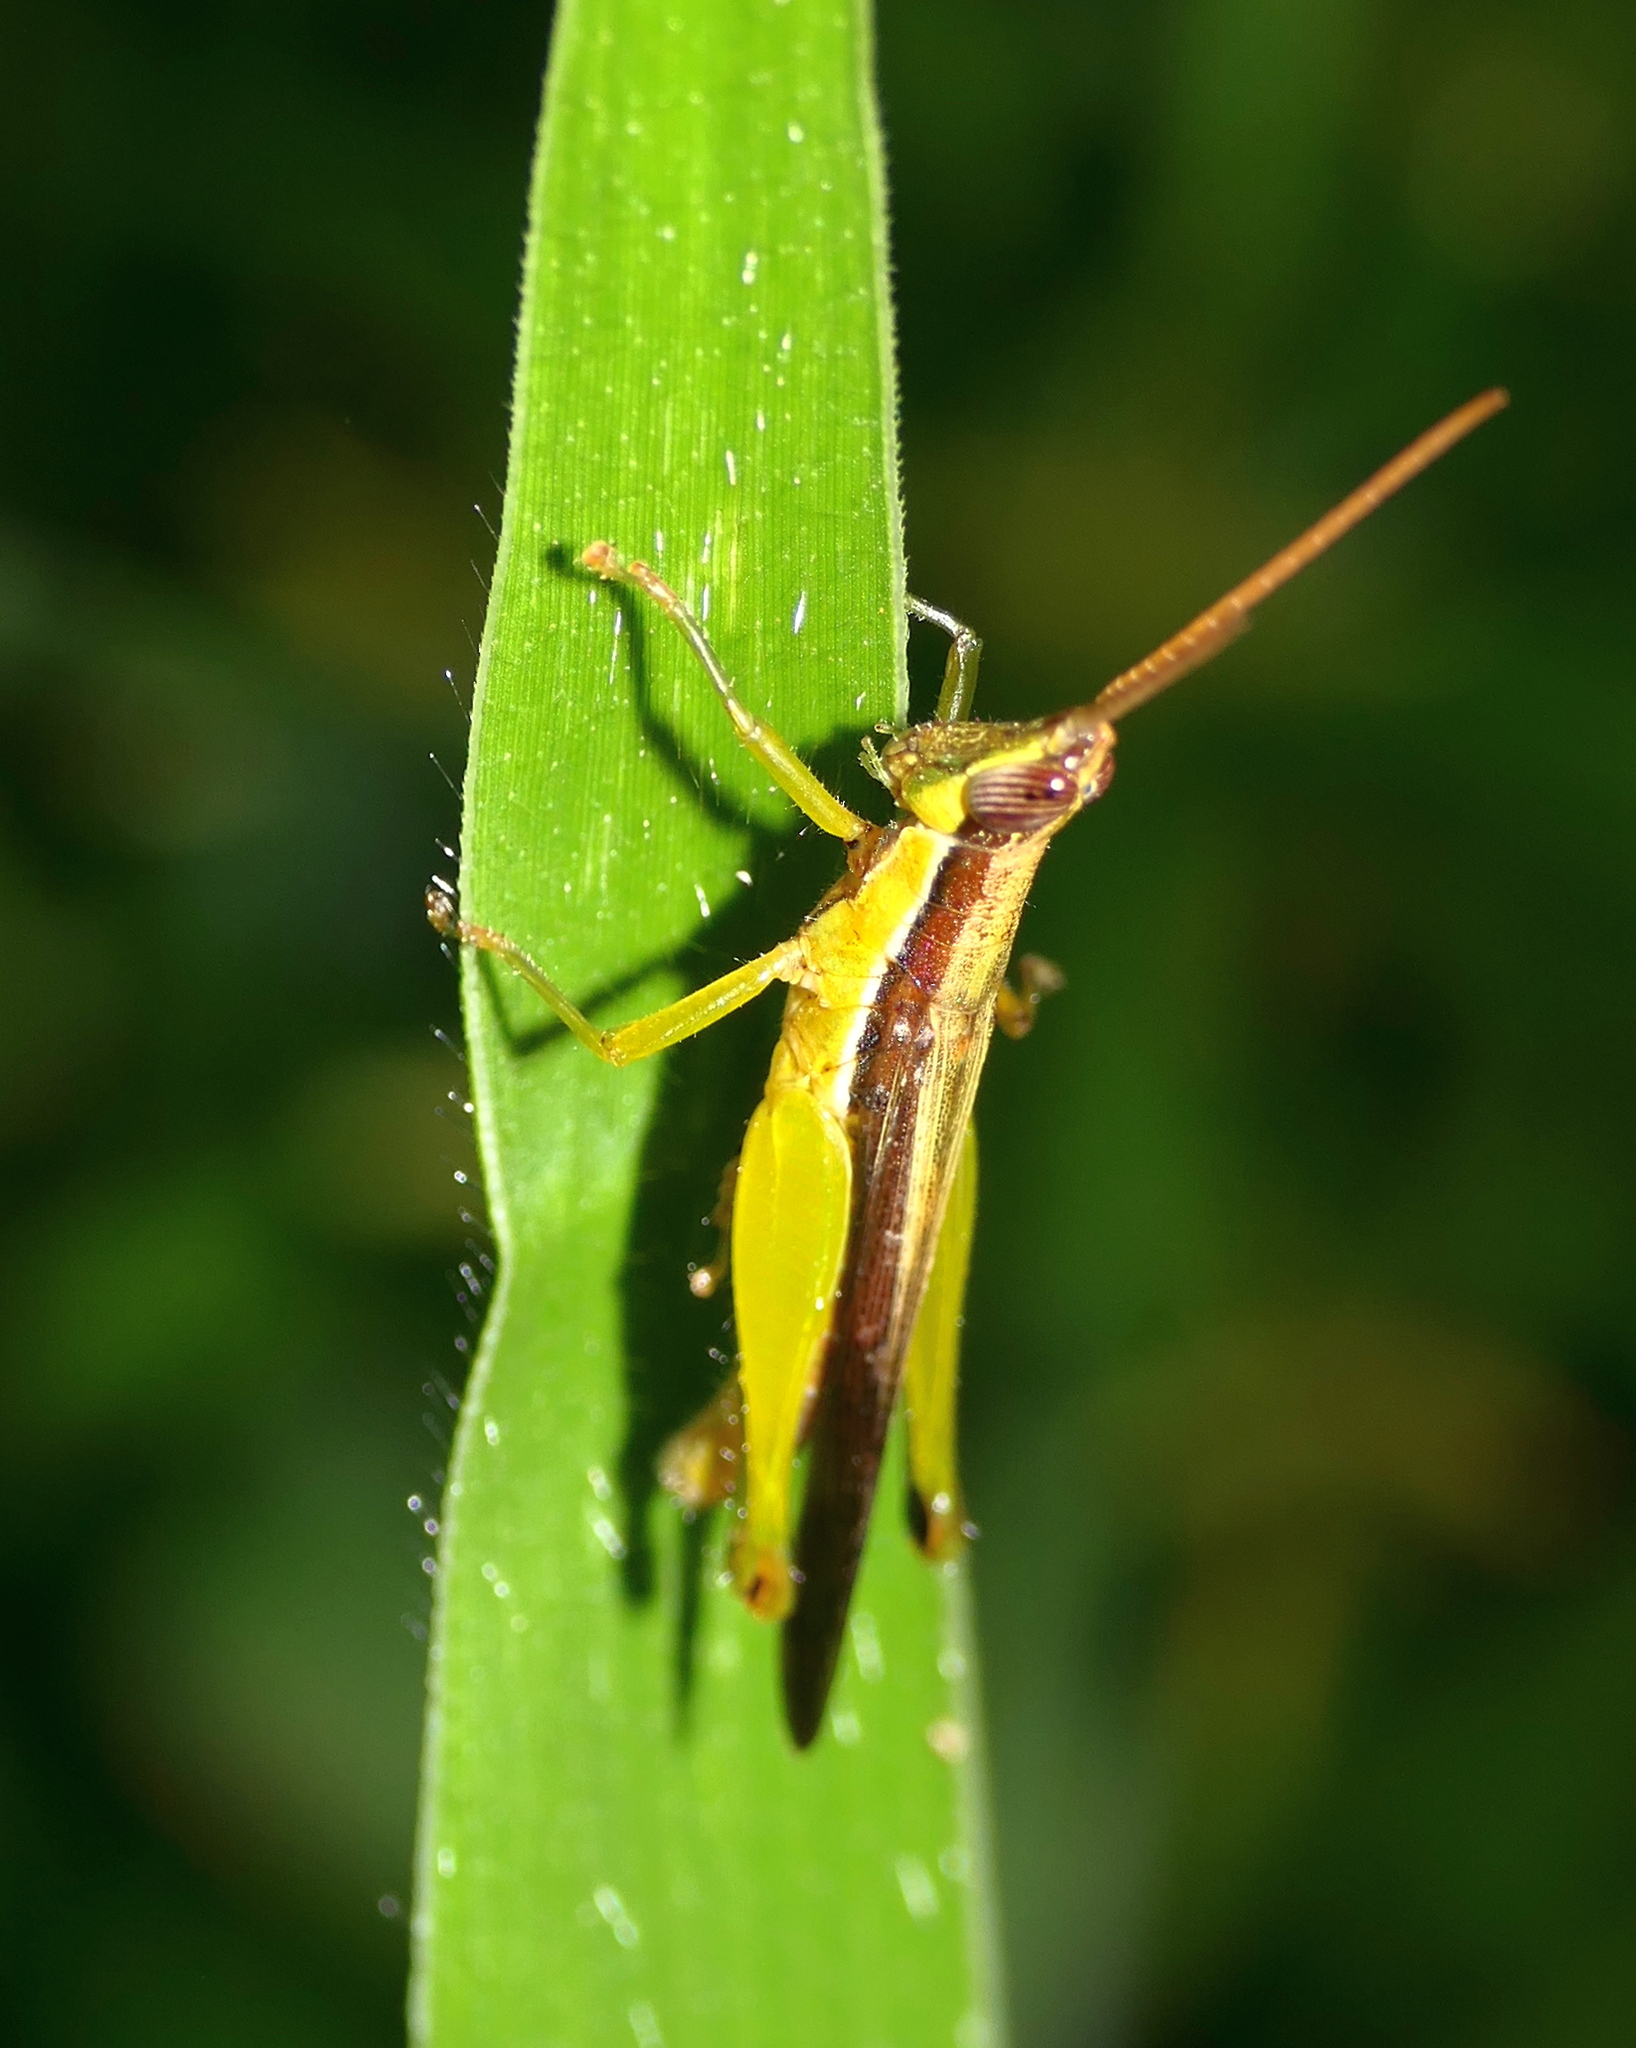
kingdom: Animalia
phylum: Arthropoda
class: Insecta
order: Orthoptera
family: Acrididae
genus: Stenopola
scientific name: Stenopola dorsalis
